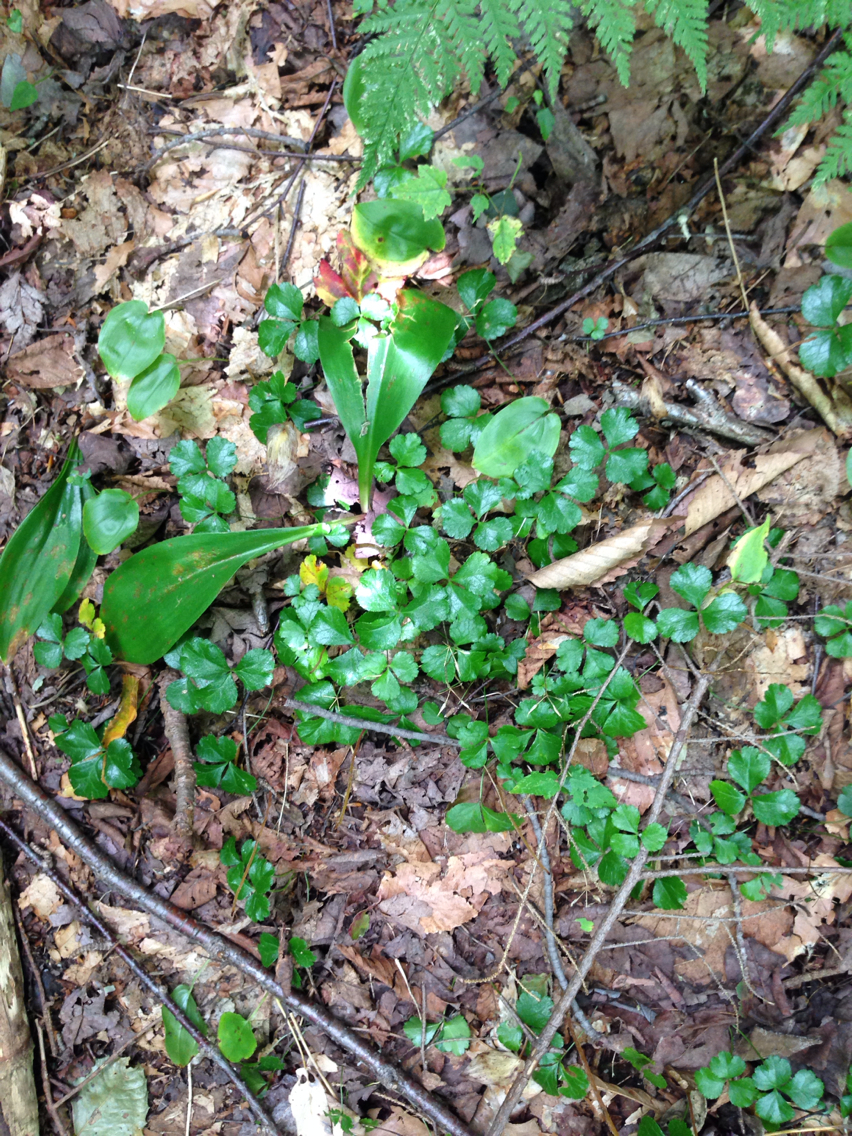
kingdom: Plantae
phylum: Tracheophyta
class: Magnoliopsida
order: Ranunculales
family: Ranunculaceae
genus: Coptis
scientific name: Coptis trifolia
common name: Canker-root
